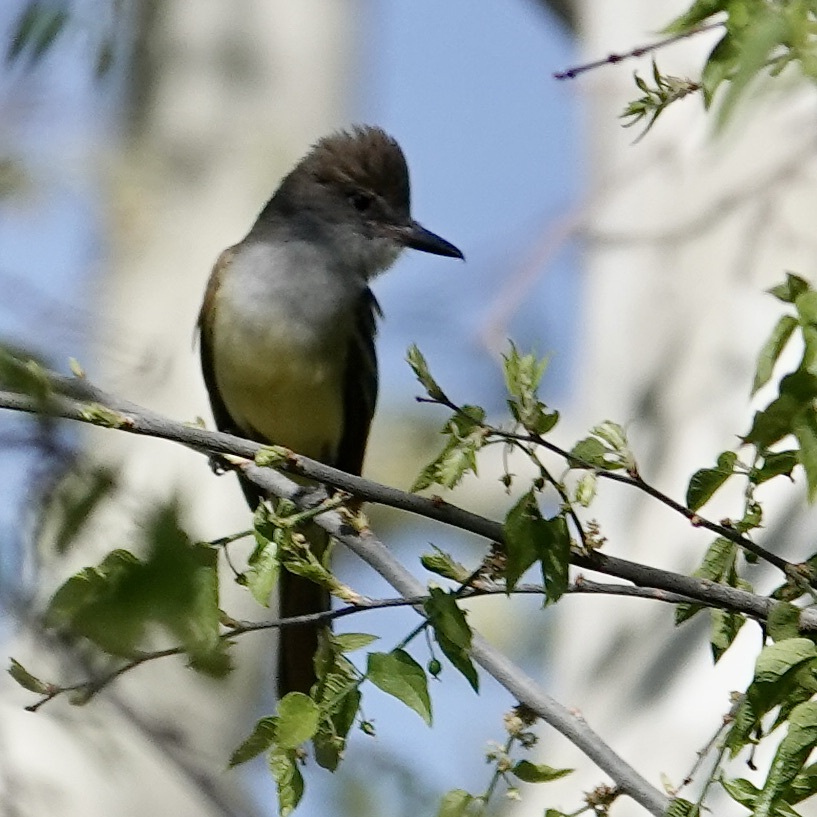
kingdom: Animalia
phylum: Chordata
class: Aves
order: Passeriformes
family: Tyrannidae
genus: Myiarchus
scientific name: Myiarchus tyrannulus
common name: Brown-crested flycatcher
